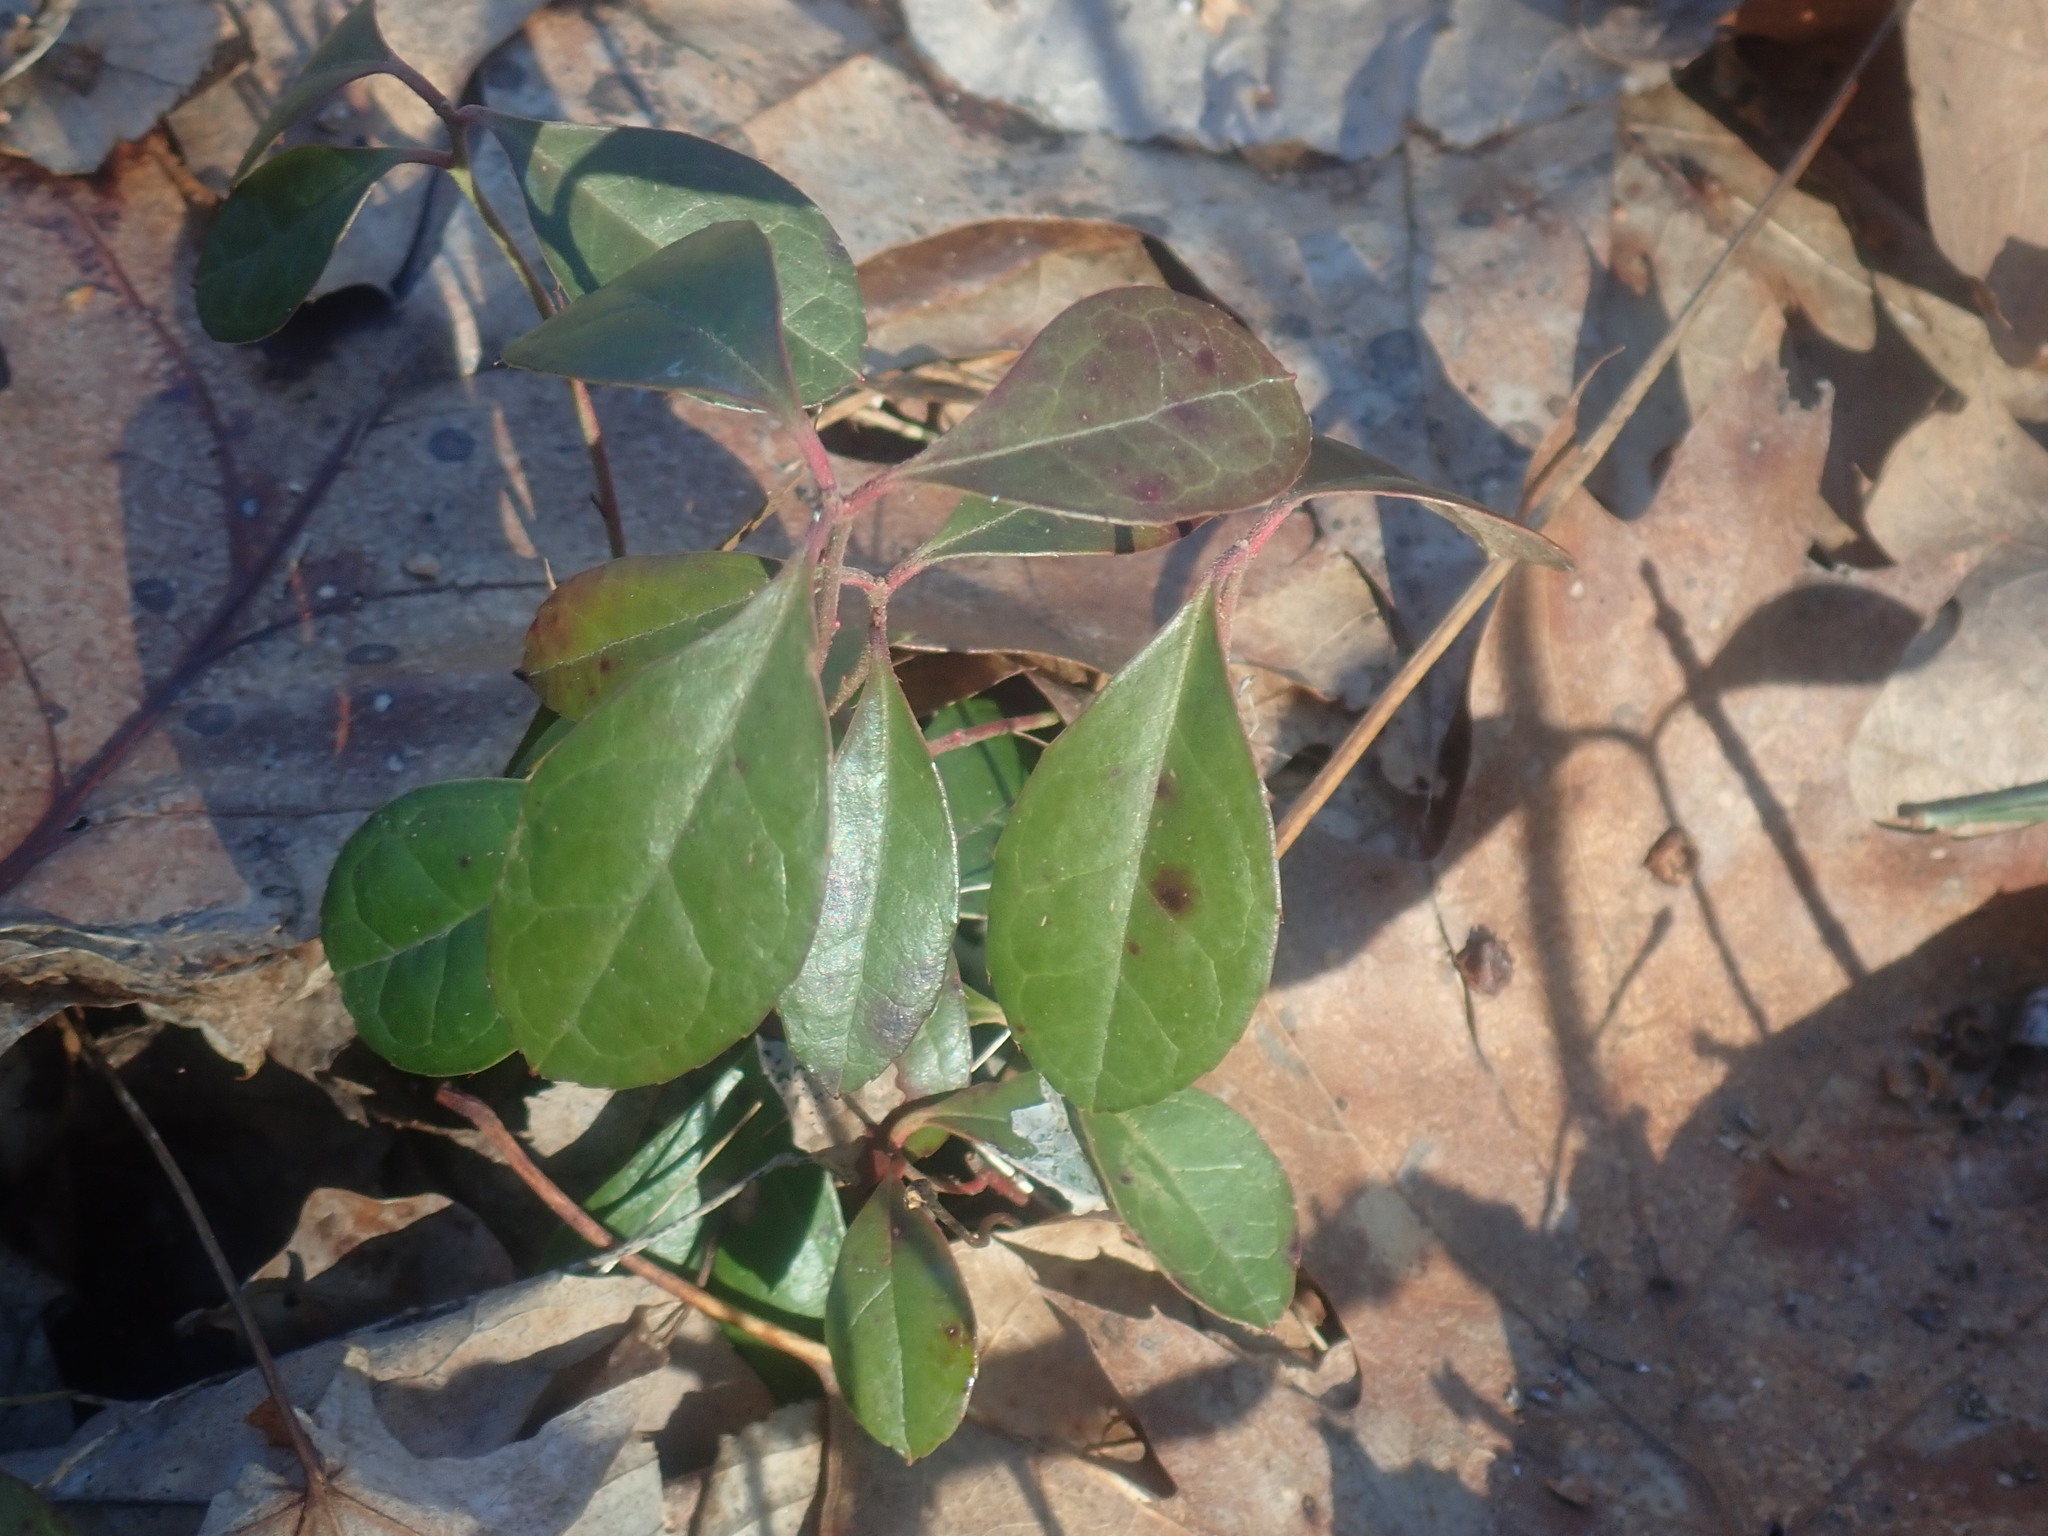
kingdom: Plantae
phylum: Tracheophyta
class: Magnoliopsida
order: Ericales
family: Ericaceae
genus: Gaultheria
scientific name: Gaultheria procumbens
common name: Checkerberry
